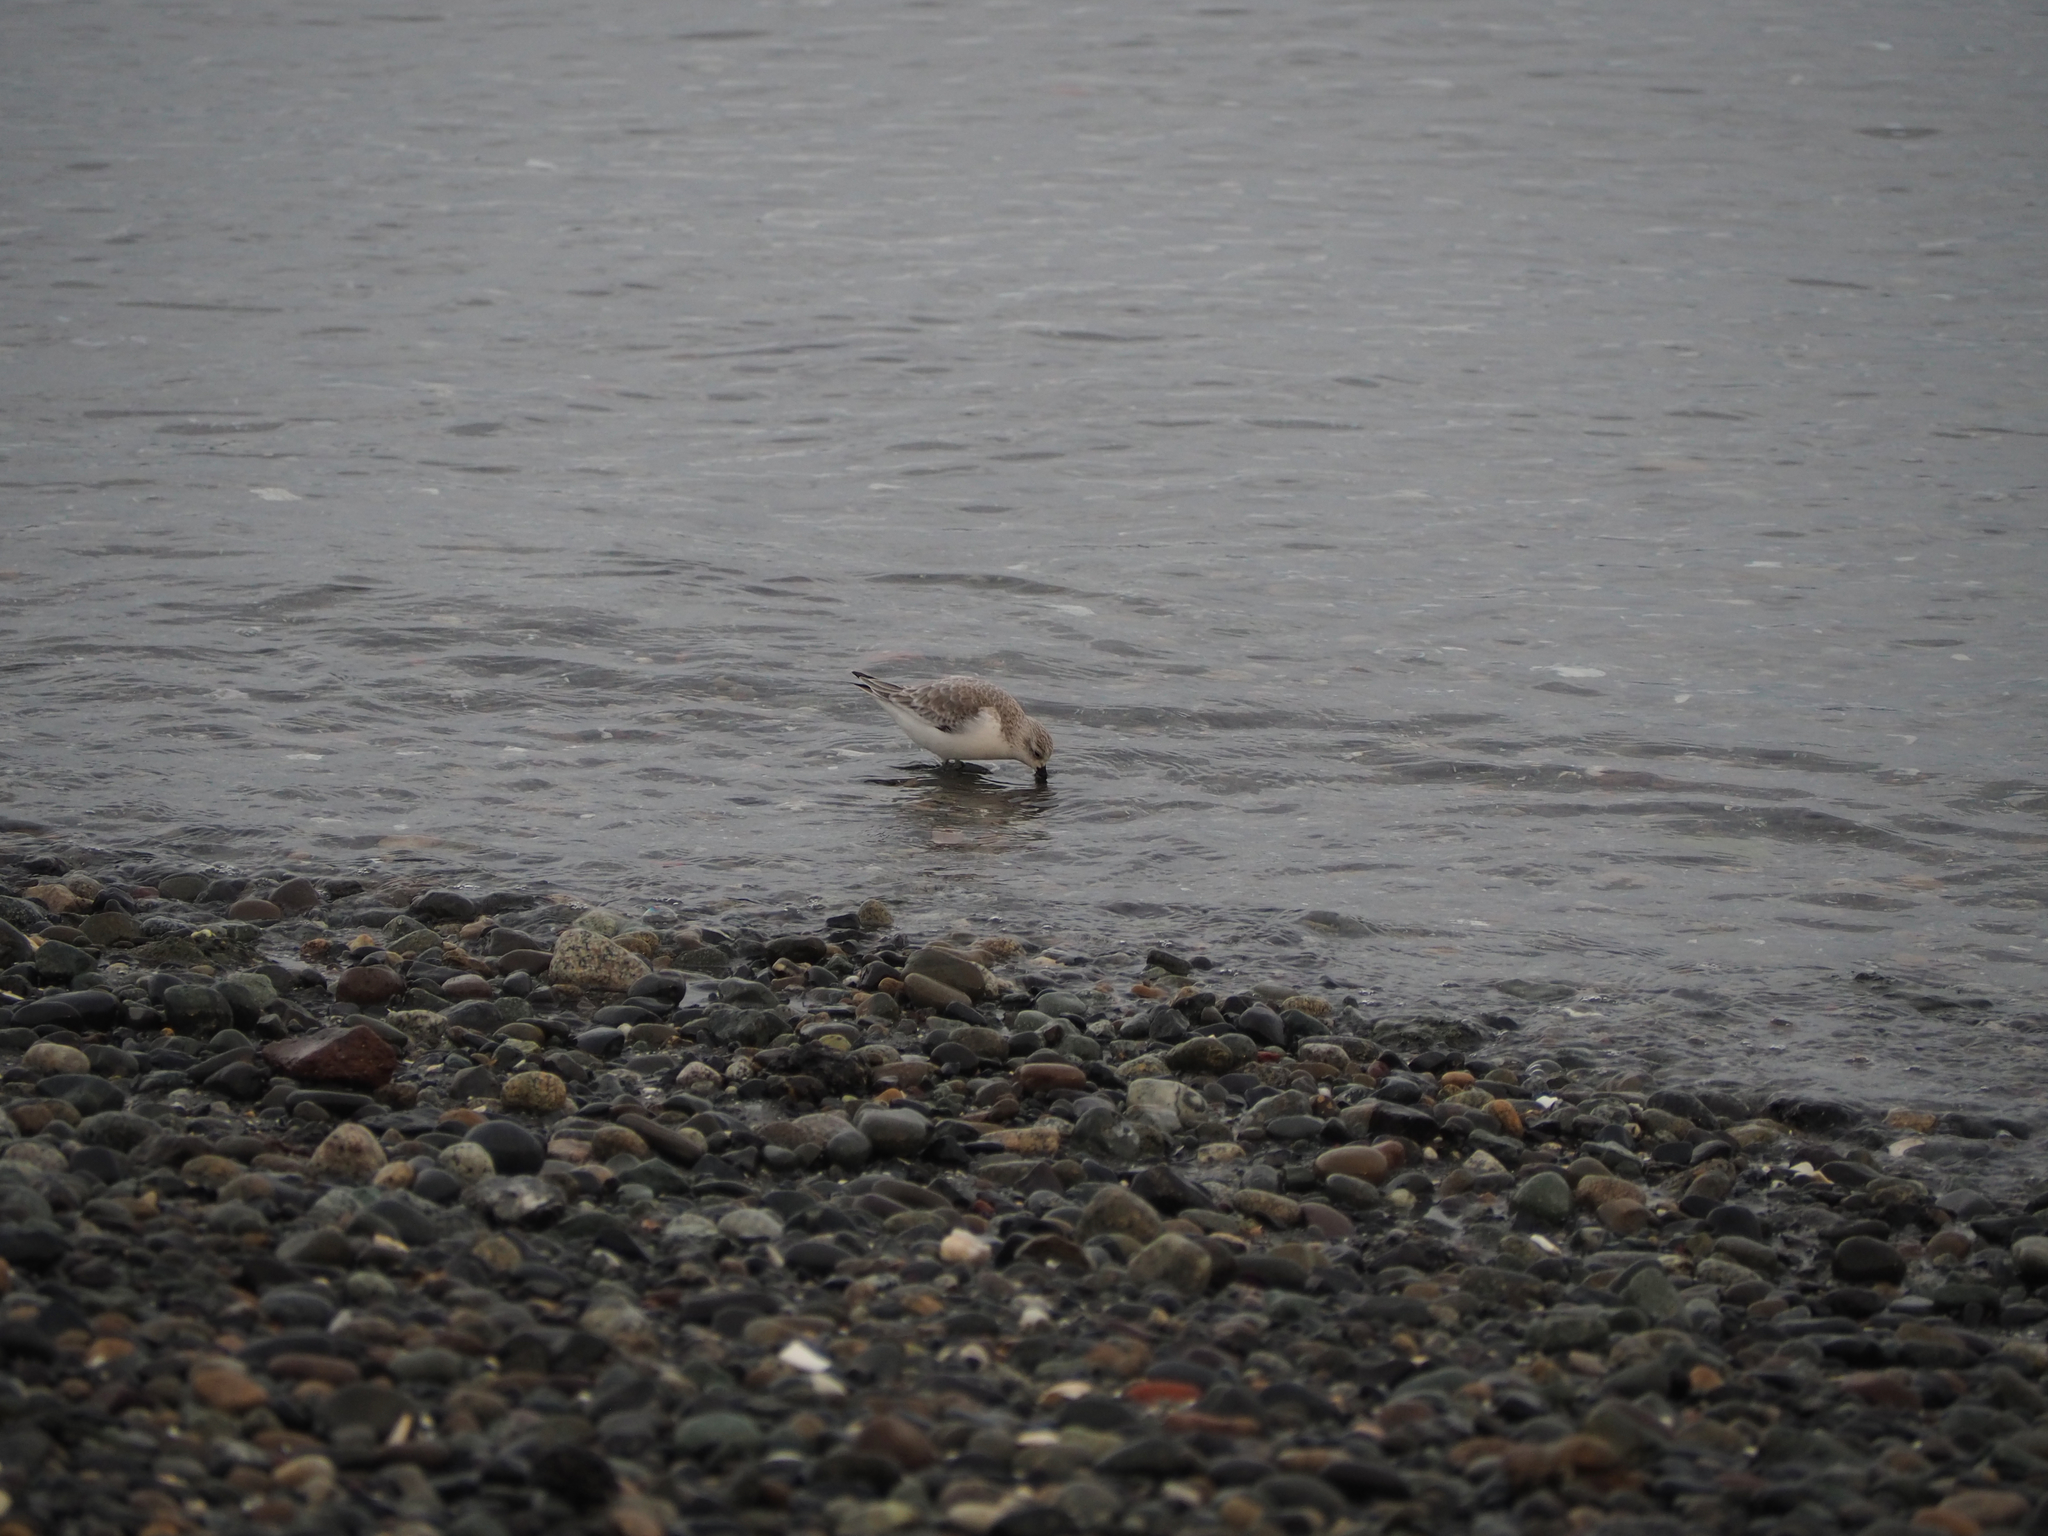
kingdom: Animalia
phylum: Chordata
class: Aves
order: Charadriiformes
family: Scolopacidae
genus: Calidris
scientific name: Calidris alba
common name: Sanderling
